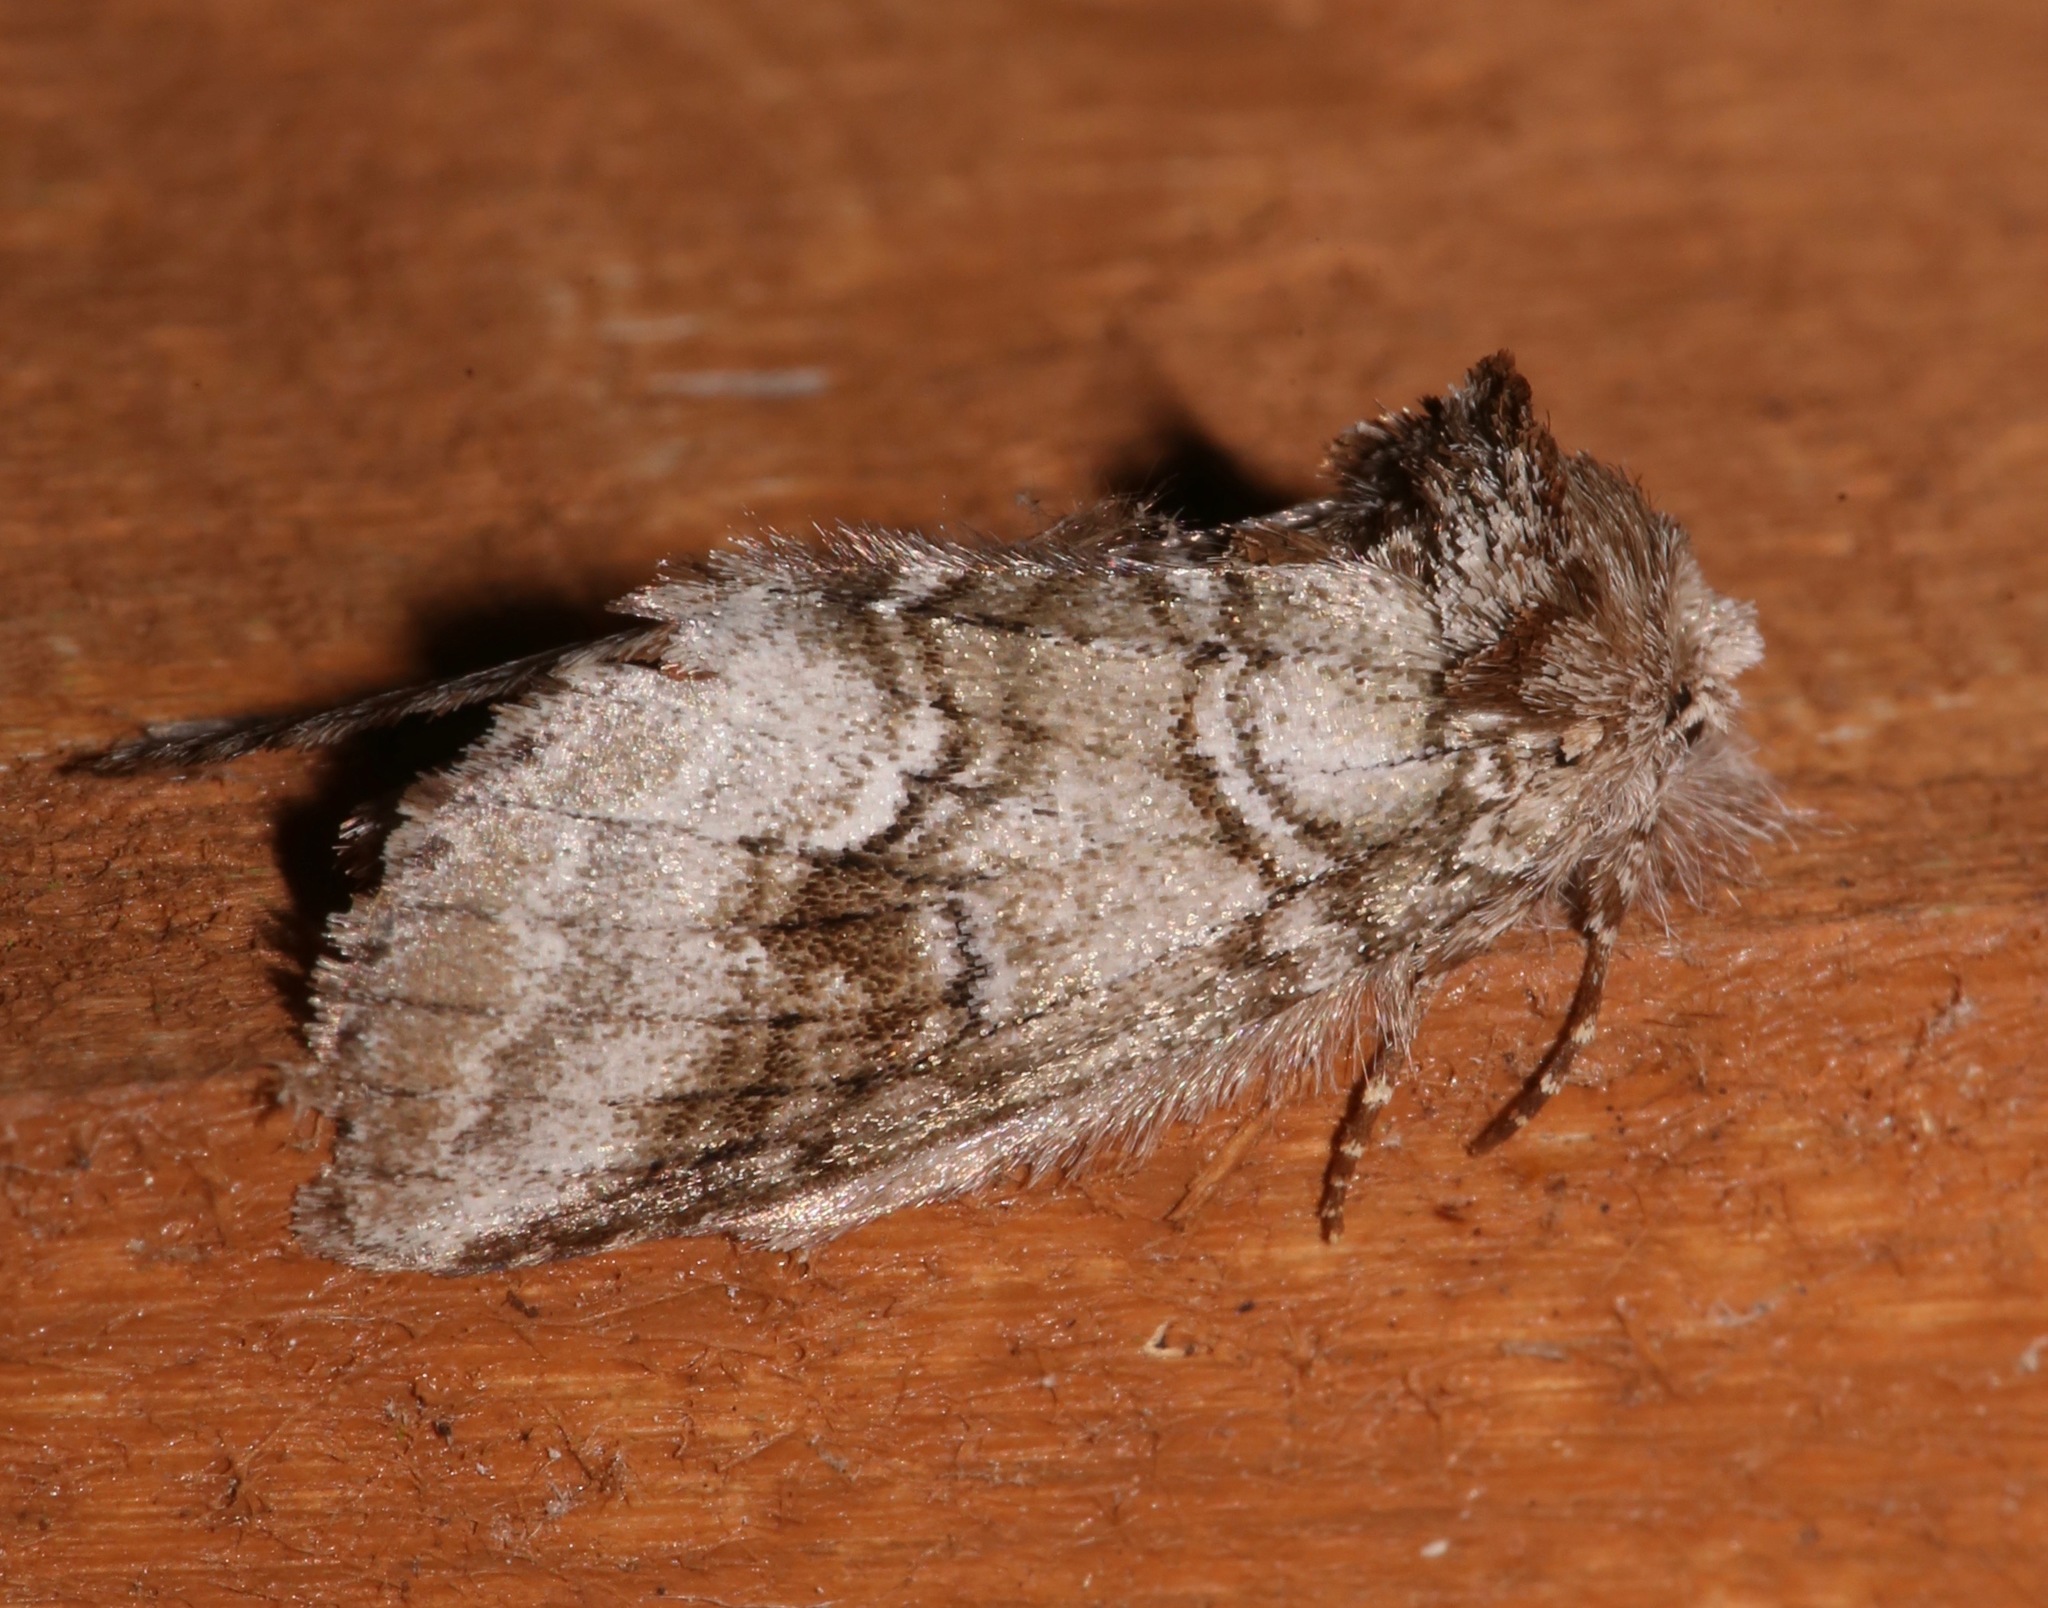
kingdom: Animalia
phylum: Arthropoda
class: Insecta
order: Lepidoptera
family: Notodontidae
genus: Lochmaeus
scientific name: Lochmaeus bilineata
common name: Double-lined prominent
